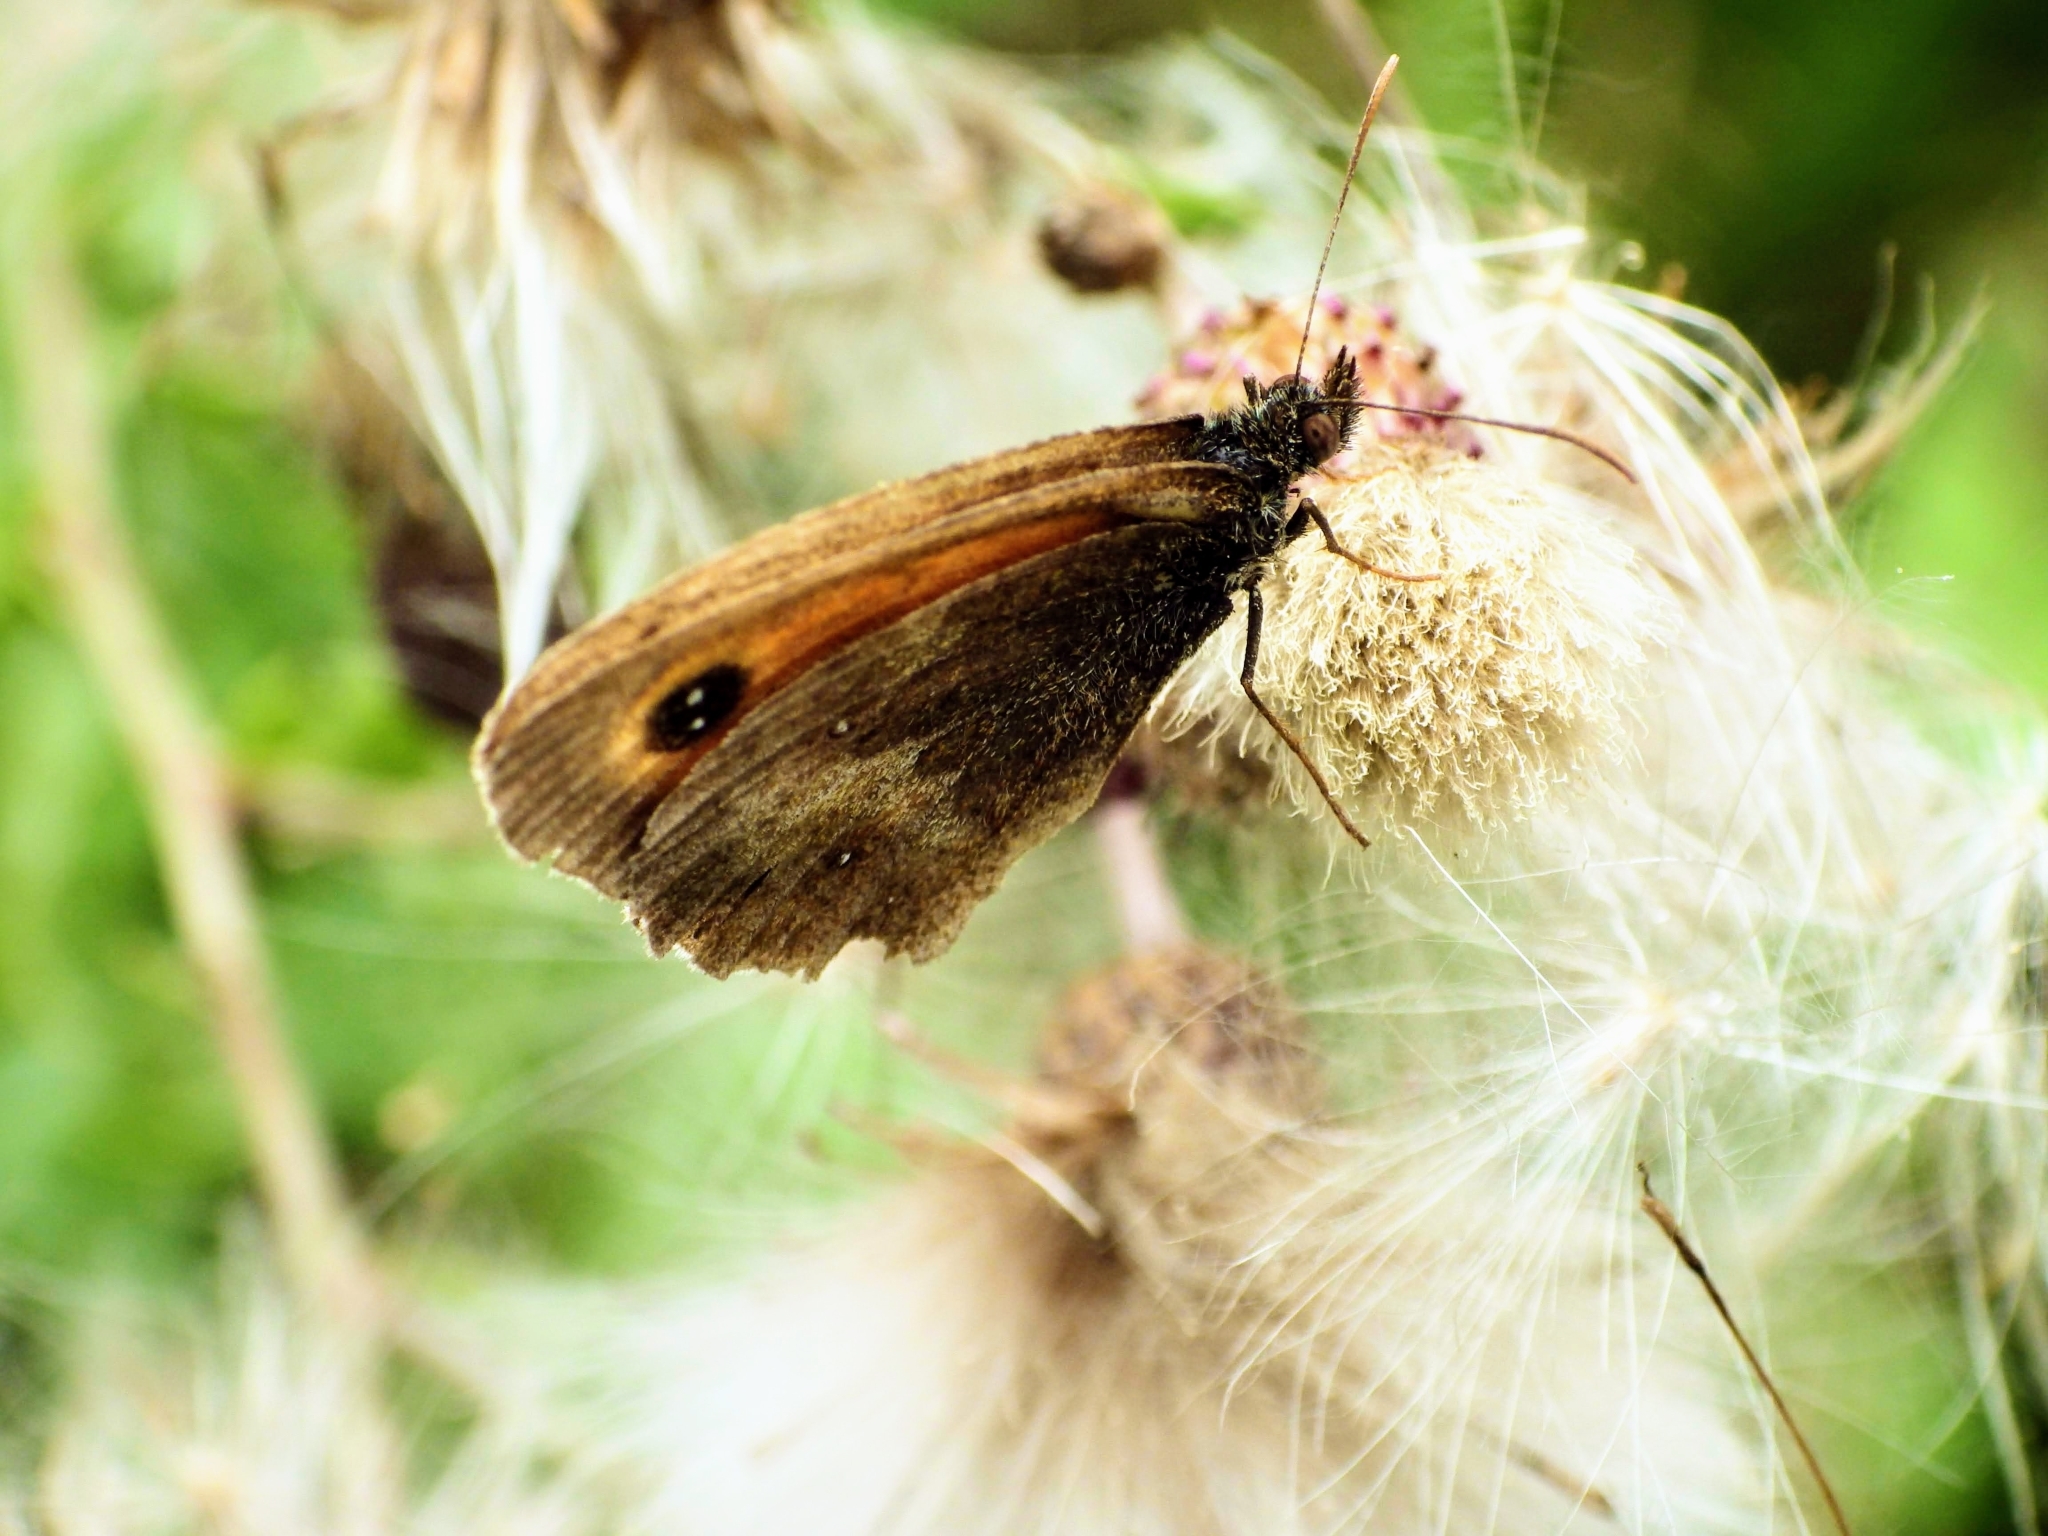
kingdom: Animalia
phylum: Arthropoda
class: Insecta
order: Lepidoptera
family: Nymphalidae
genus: Pyronia
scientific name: Pyronia tithonus
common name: Gatekeeper
